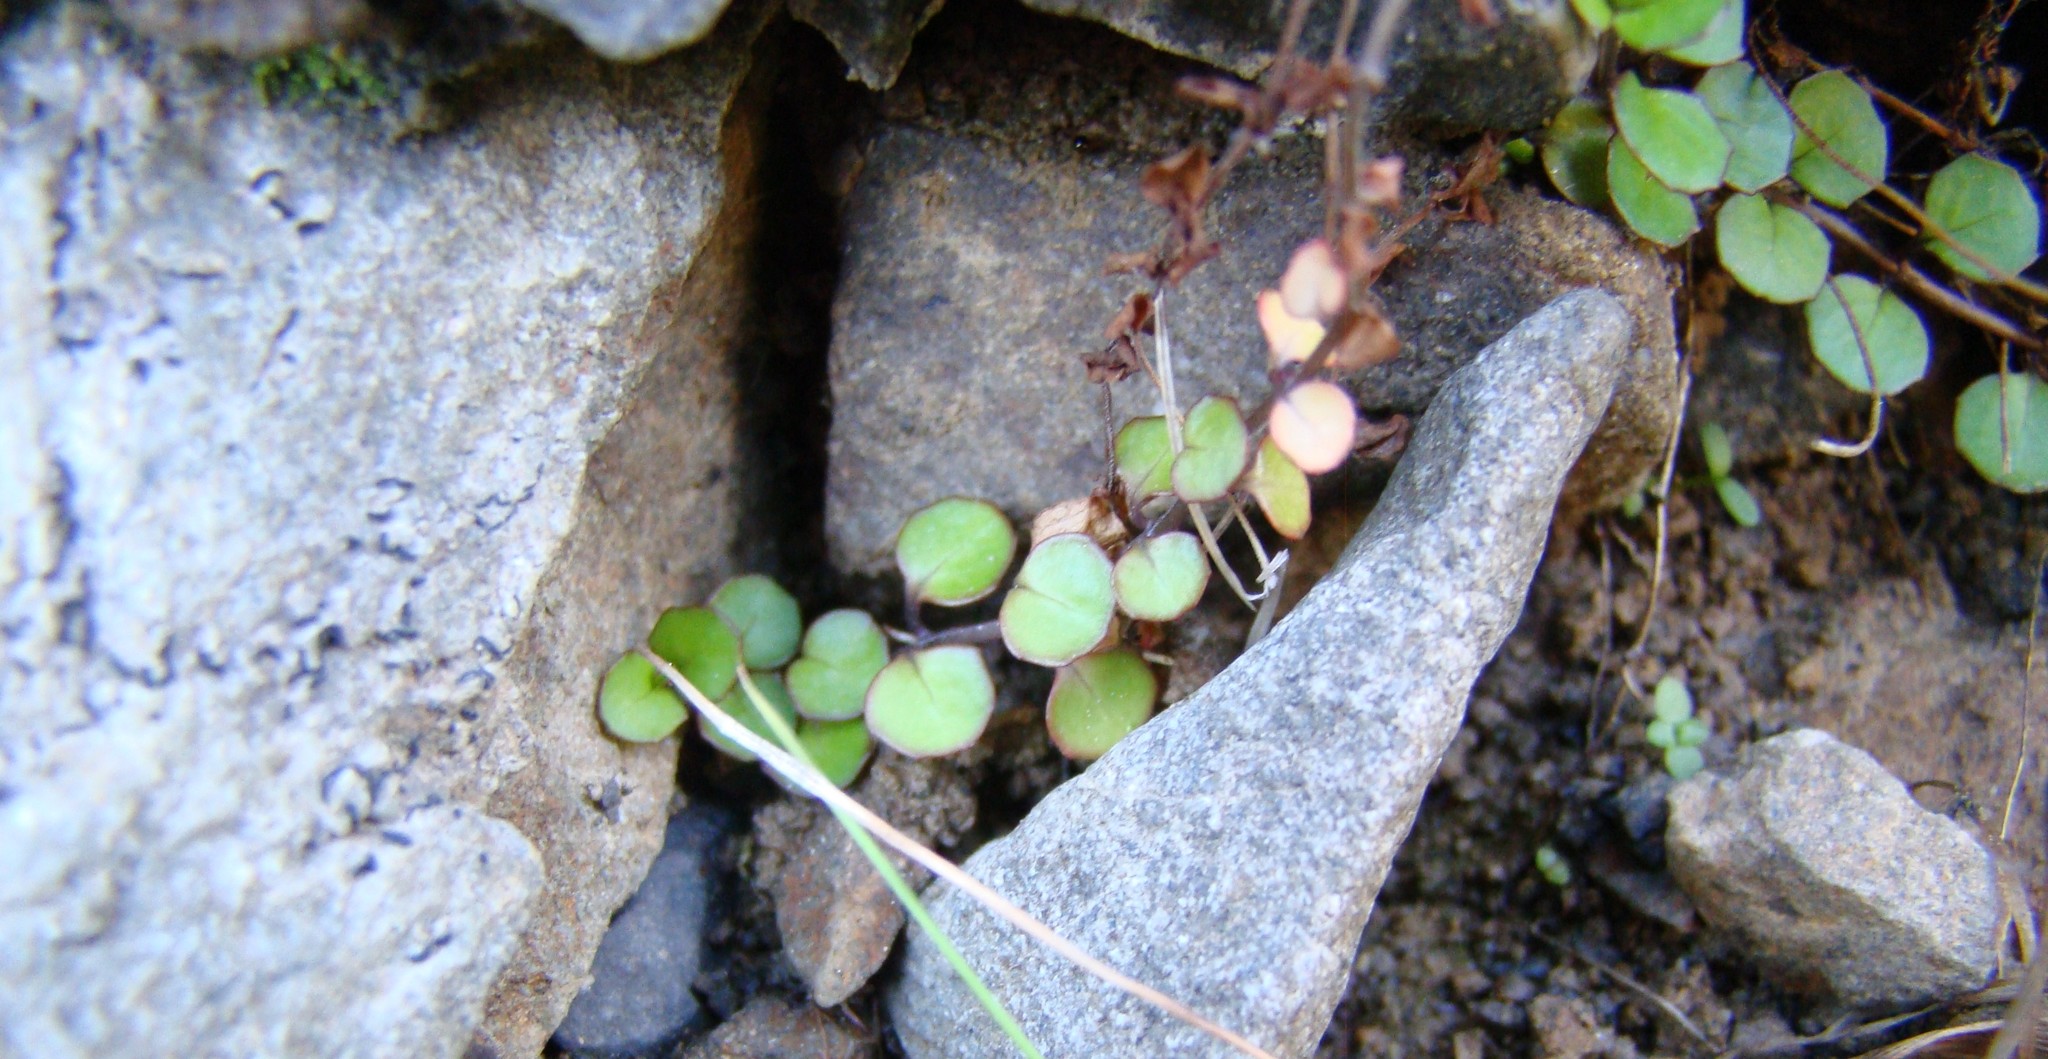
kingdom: Plantae
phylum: Tracheophyta
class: Magnoliopsida
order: Myrtales
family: Onagraceae
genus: Epilobium
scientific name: Epilobium nummularifolium
